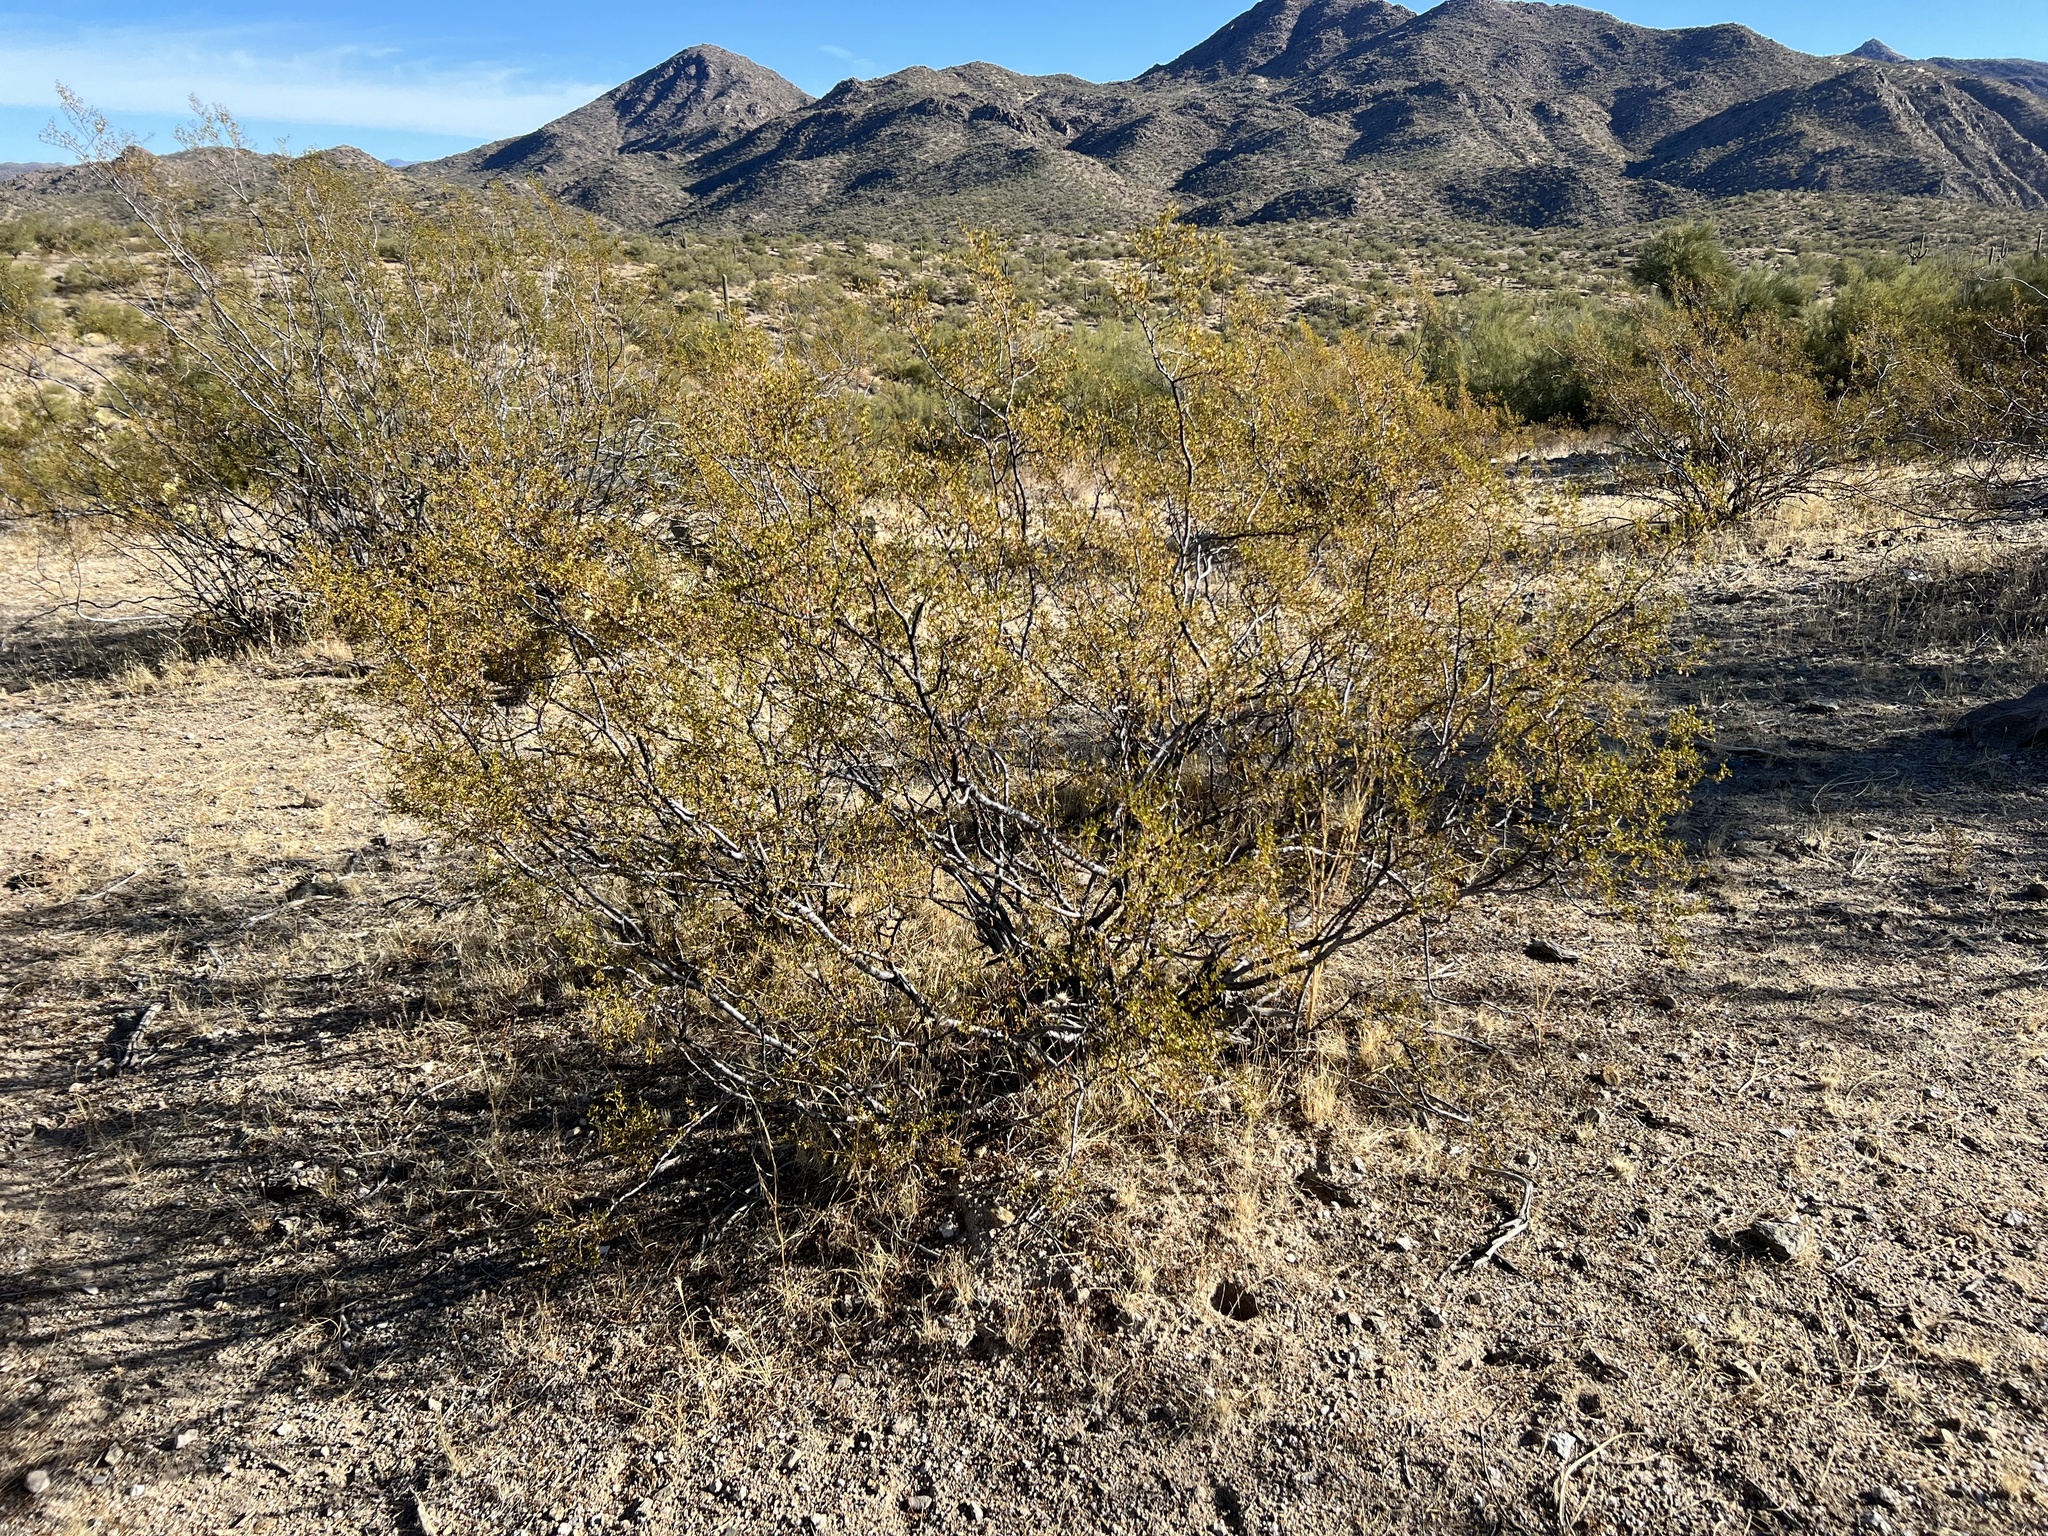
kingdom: Plantae
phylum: Tracheophyta
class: Magnoliopsida
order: Zygophyllales
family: Zygophyllaceae
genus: Larrea
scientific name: Larrea tridentata
